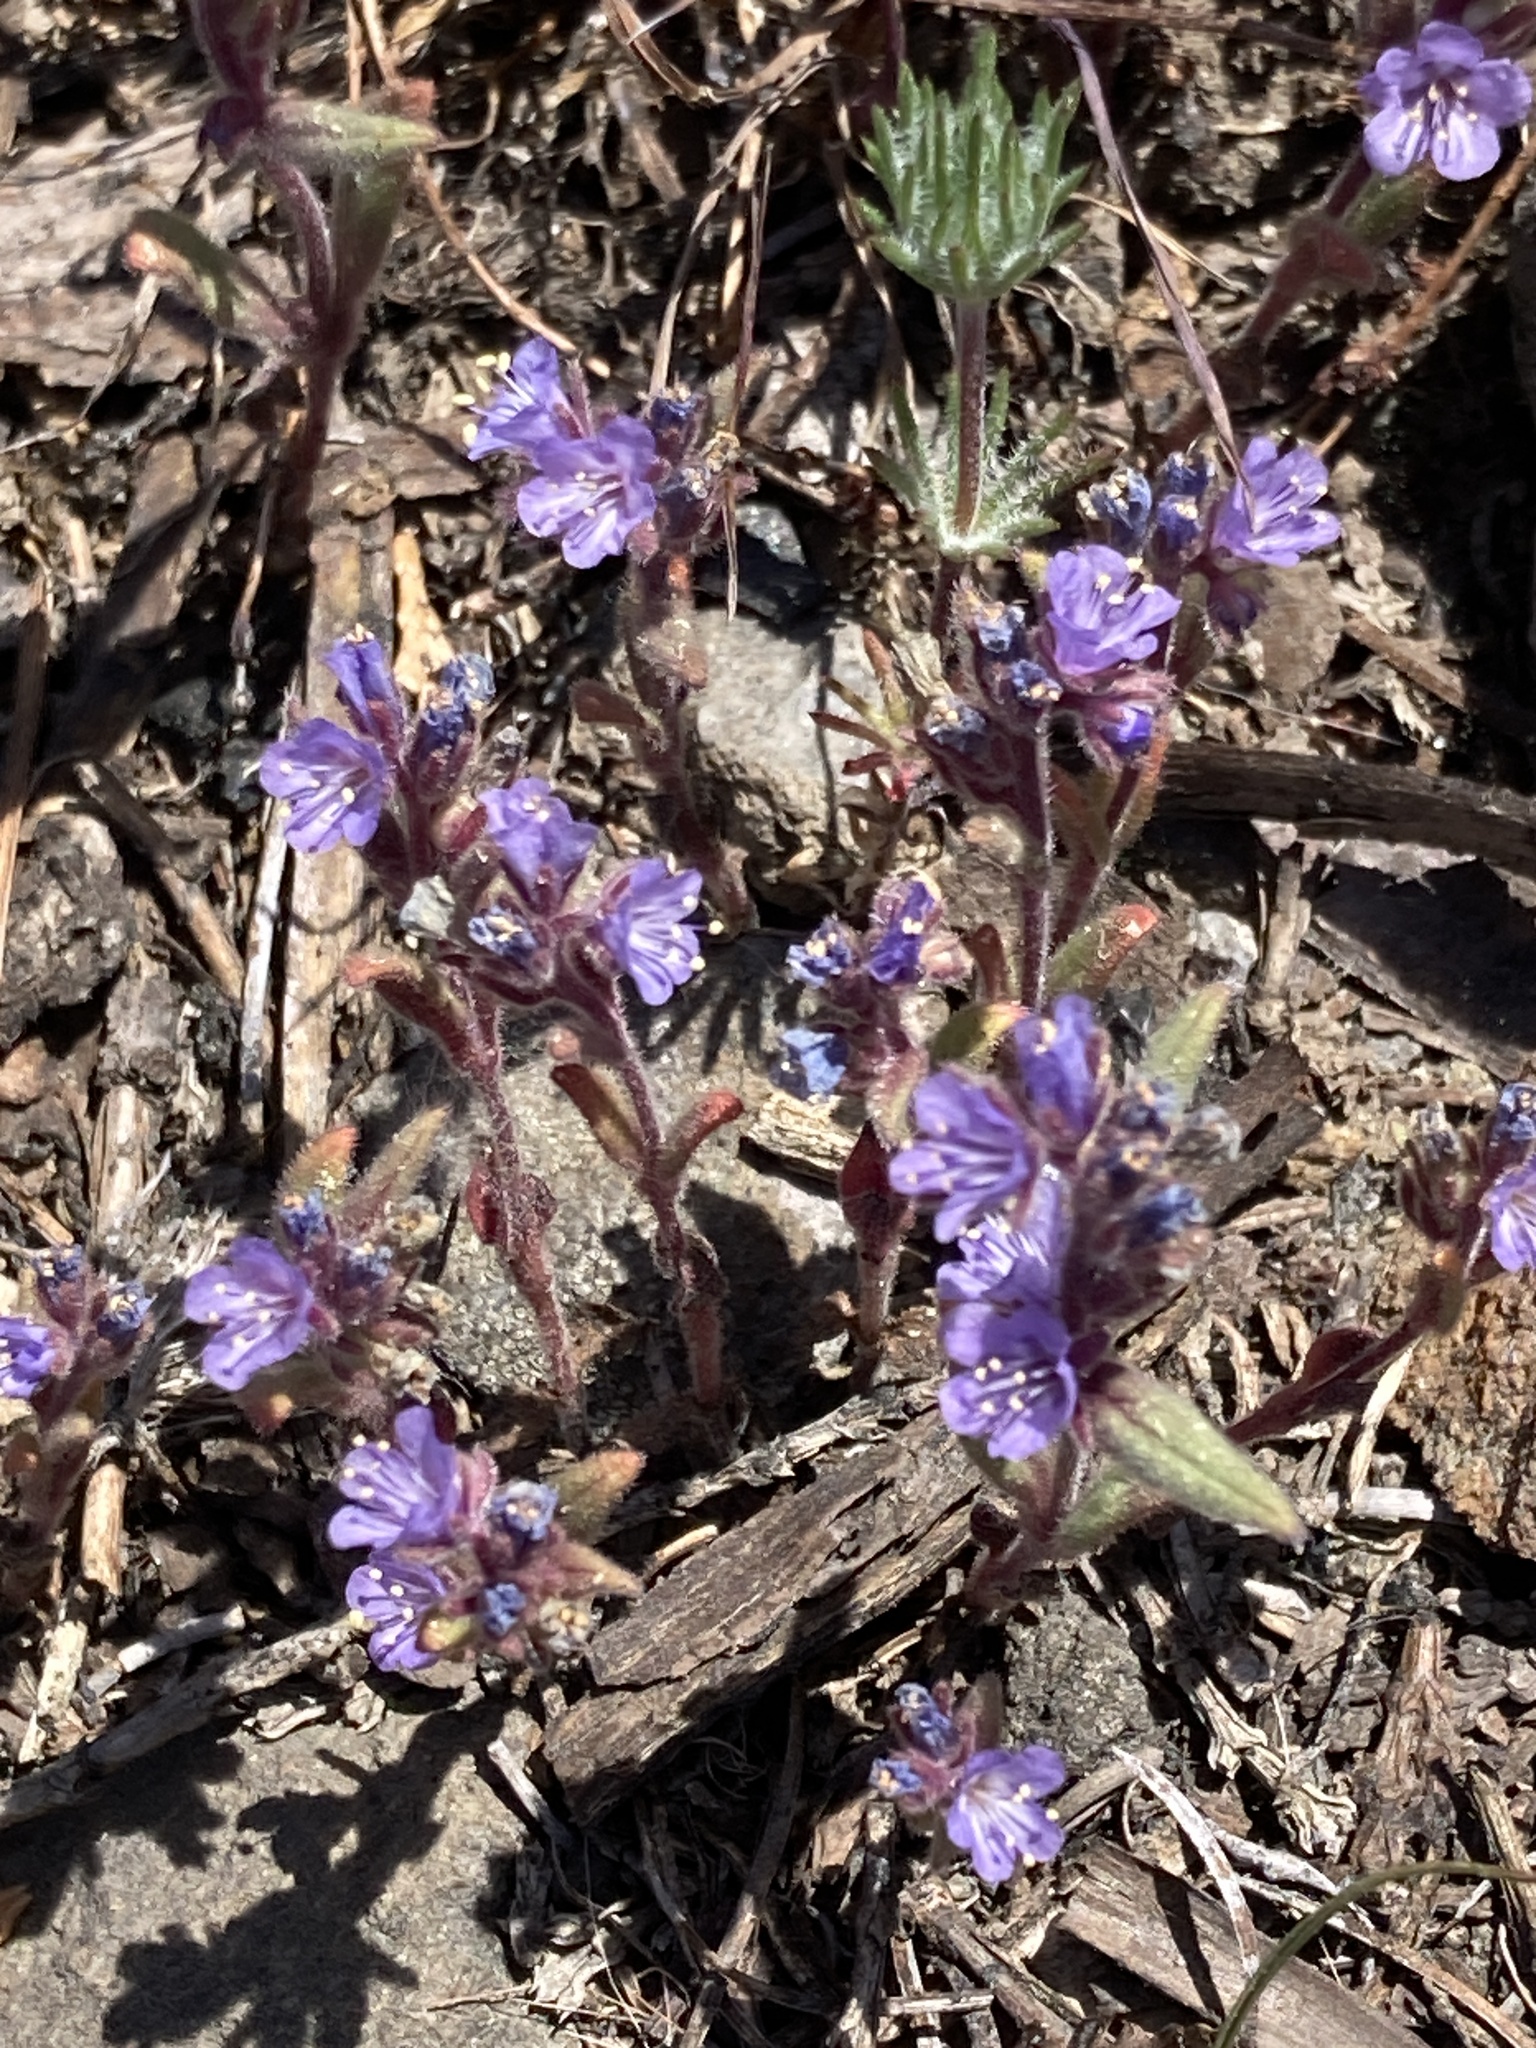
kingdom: Plantae
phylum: Tracheophyta
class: Magnoliopsida
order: Boraginales
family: Hydrophyllaceae
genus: Phacelia
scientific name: Phacelia quickii
